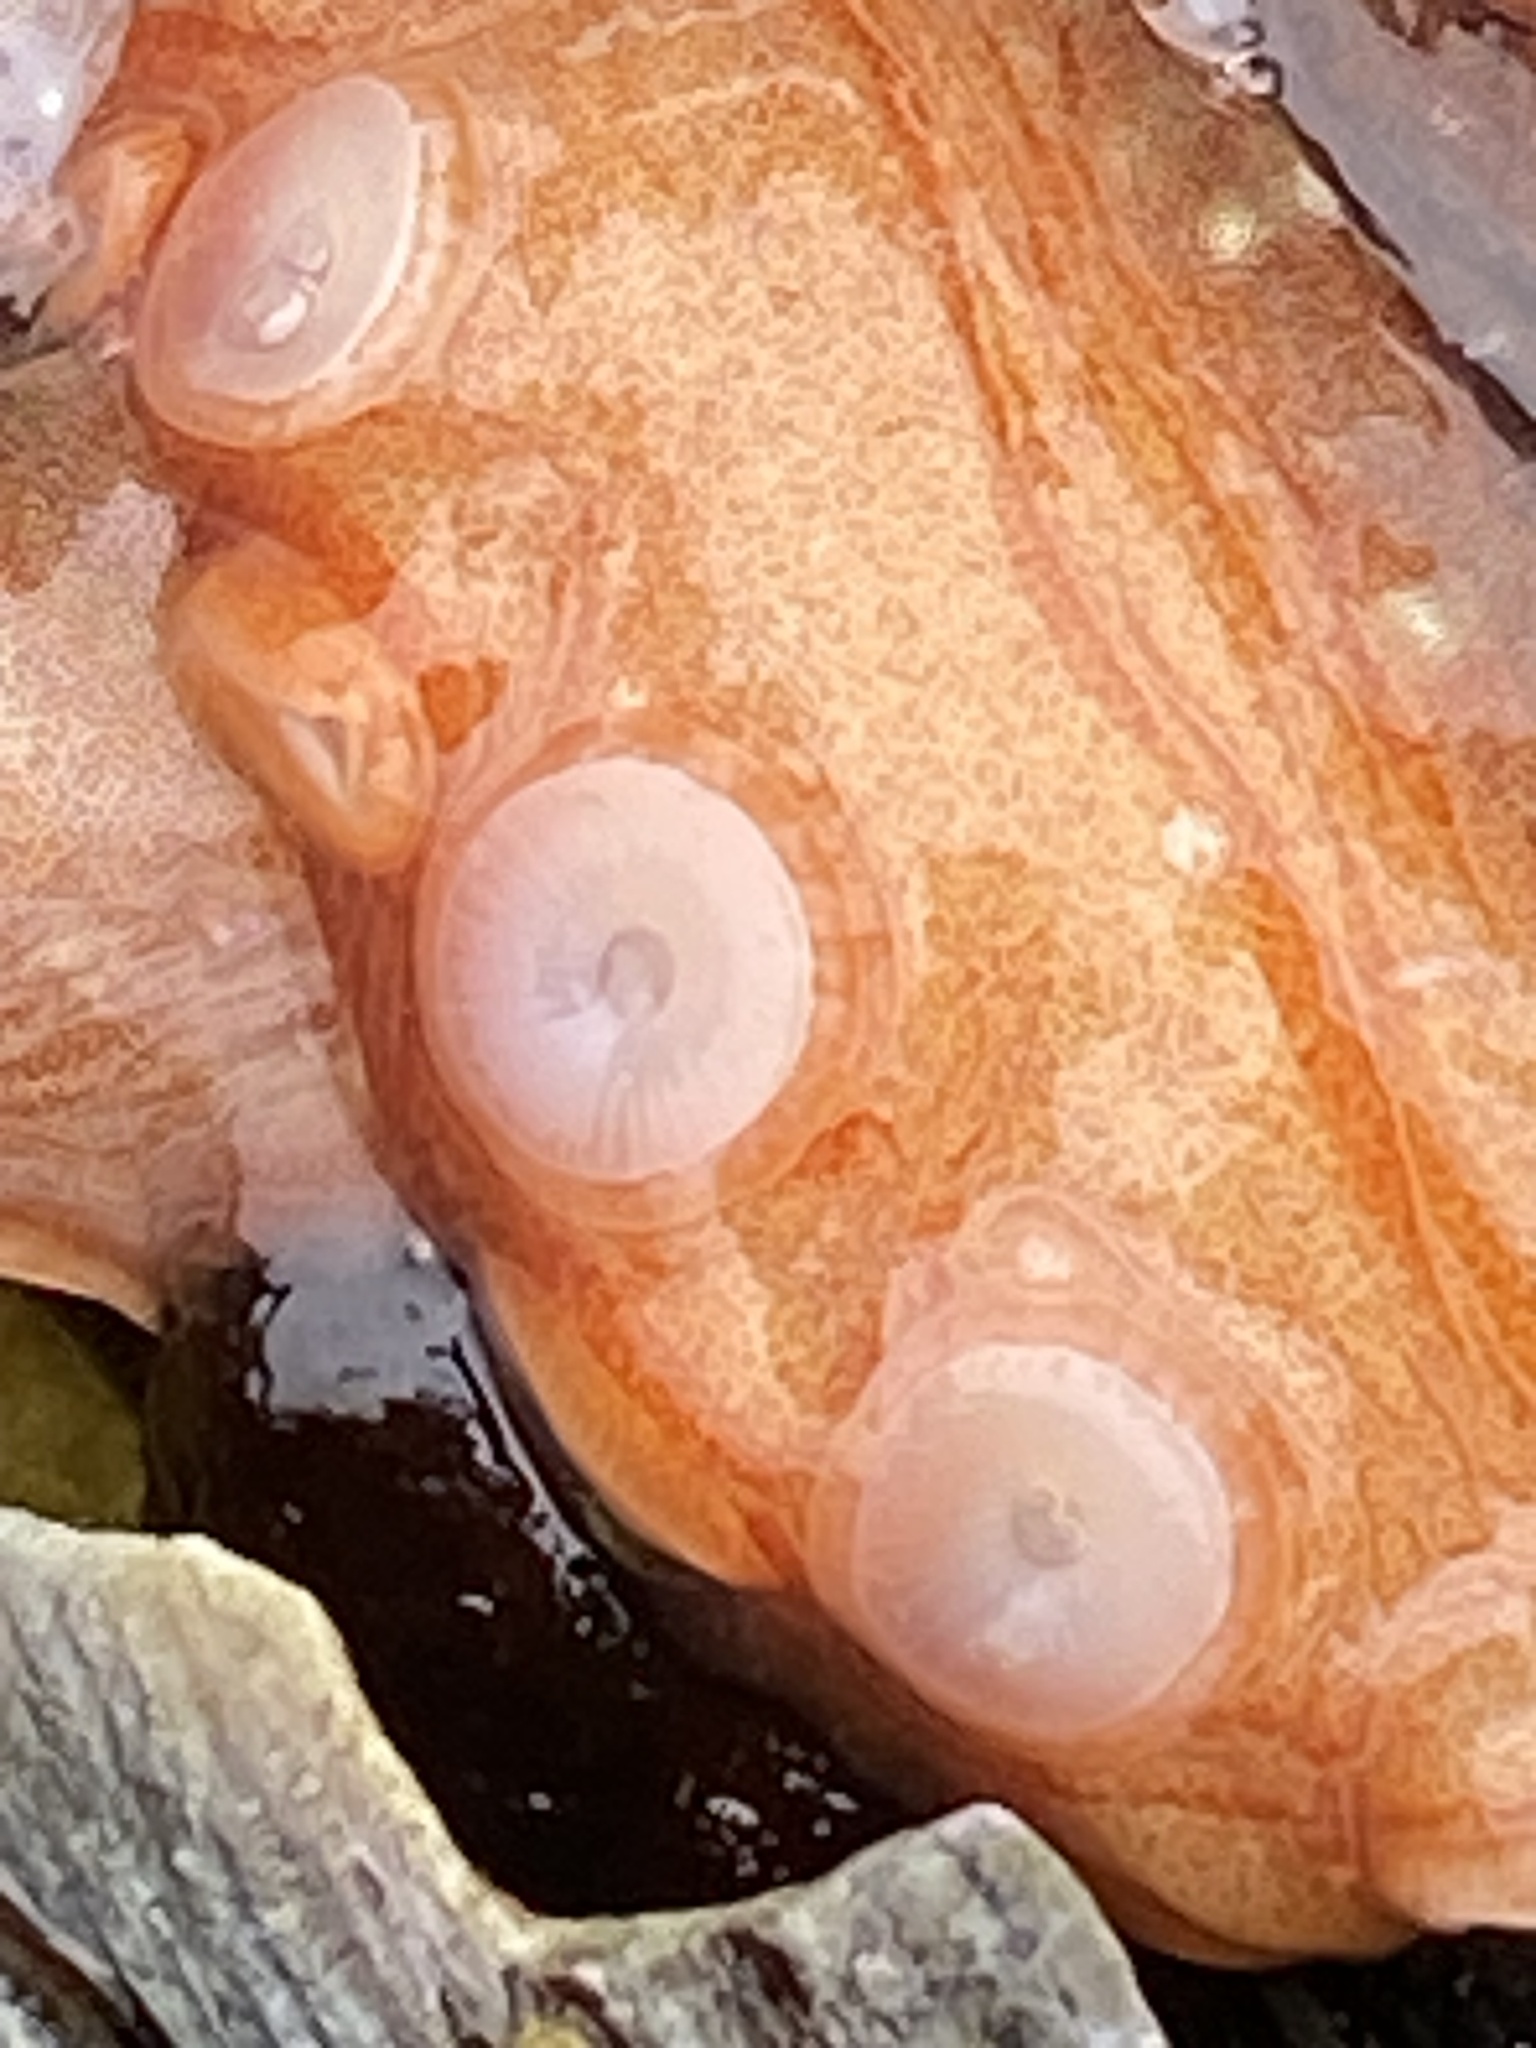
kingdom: Animalia
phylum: Mollusca
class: Cephalopoda
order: Octopoda
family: Octopodidae
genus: Octopus
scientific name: Octopus rubescens
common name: East pacific red octopus
